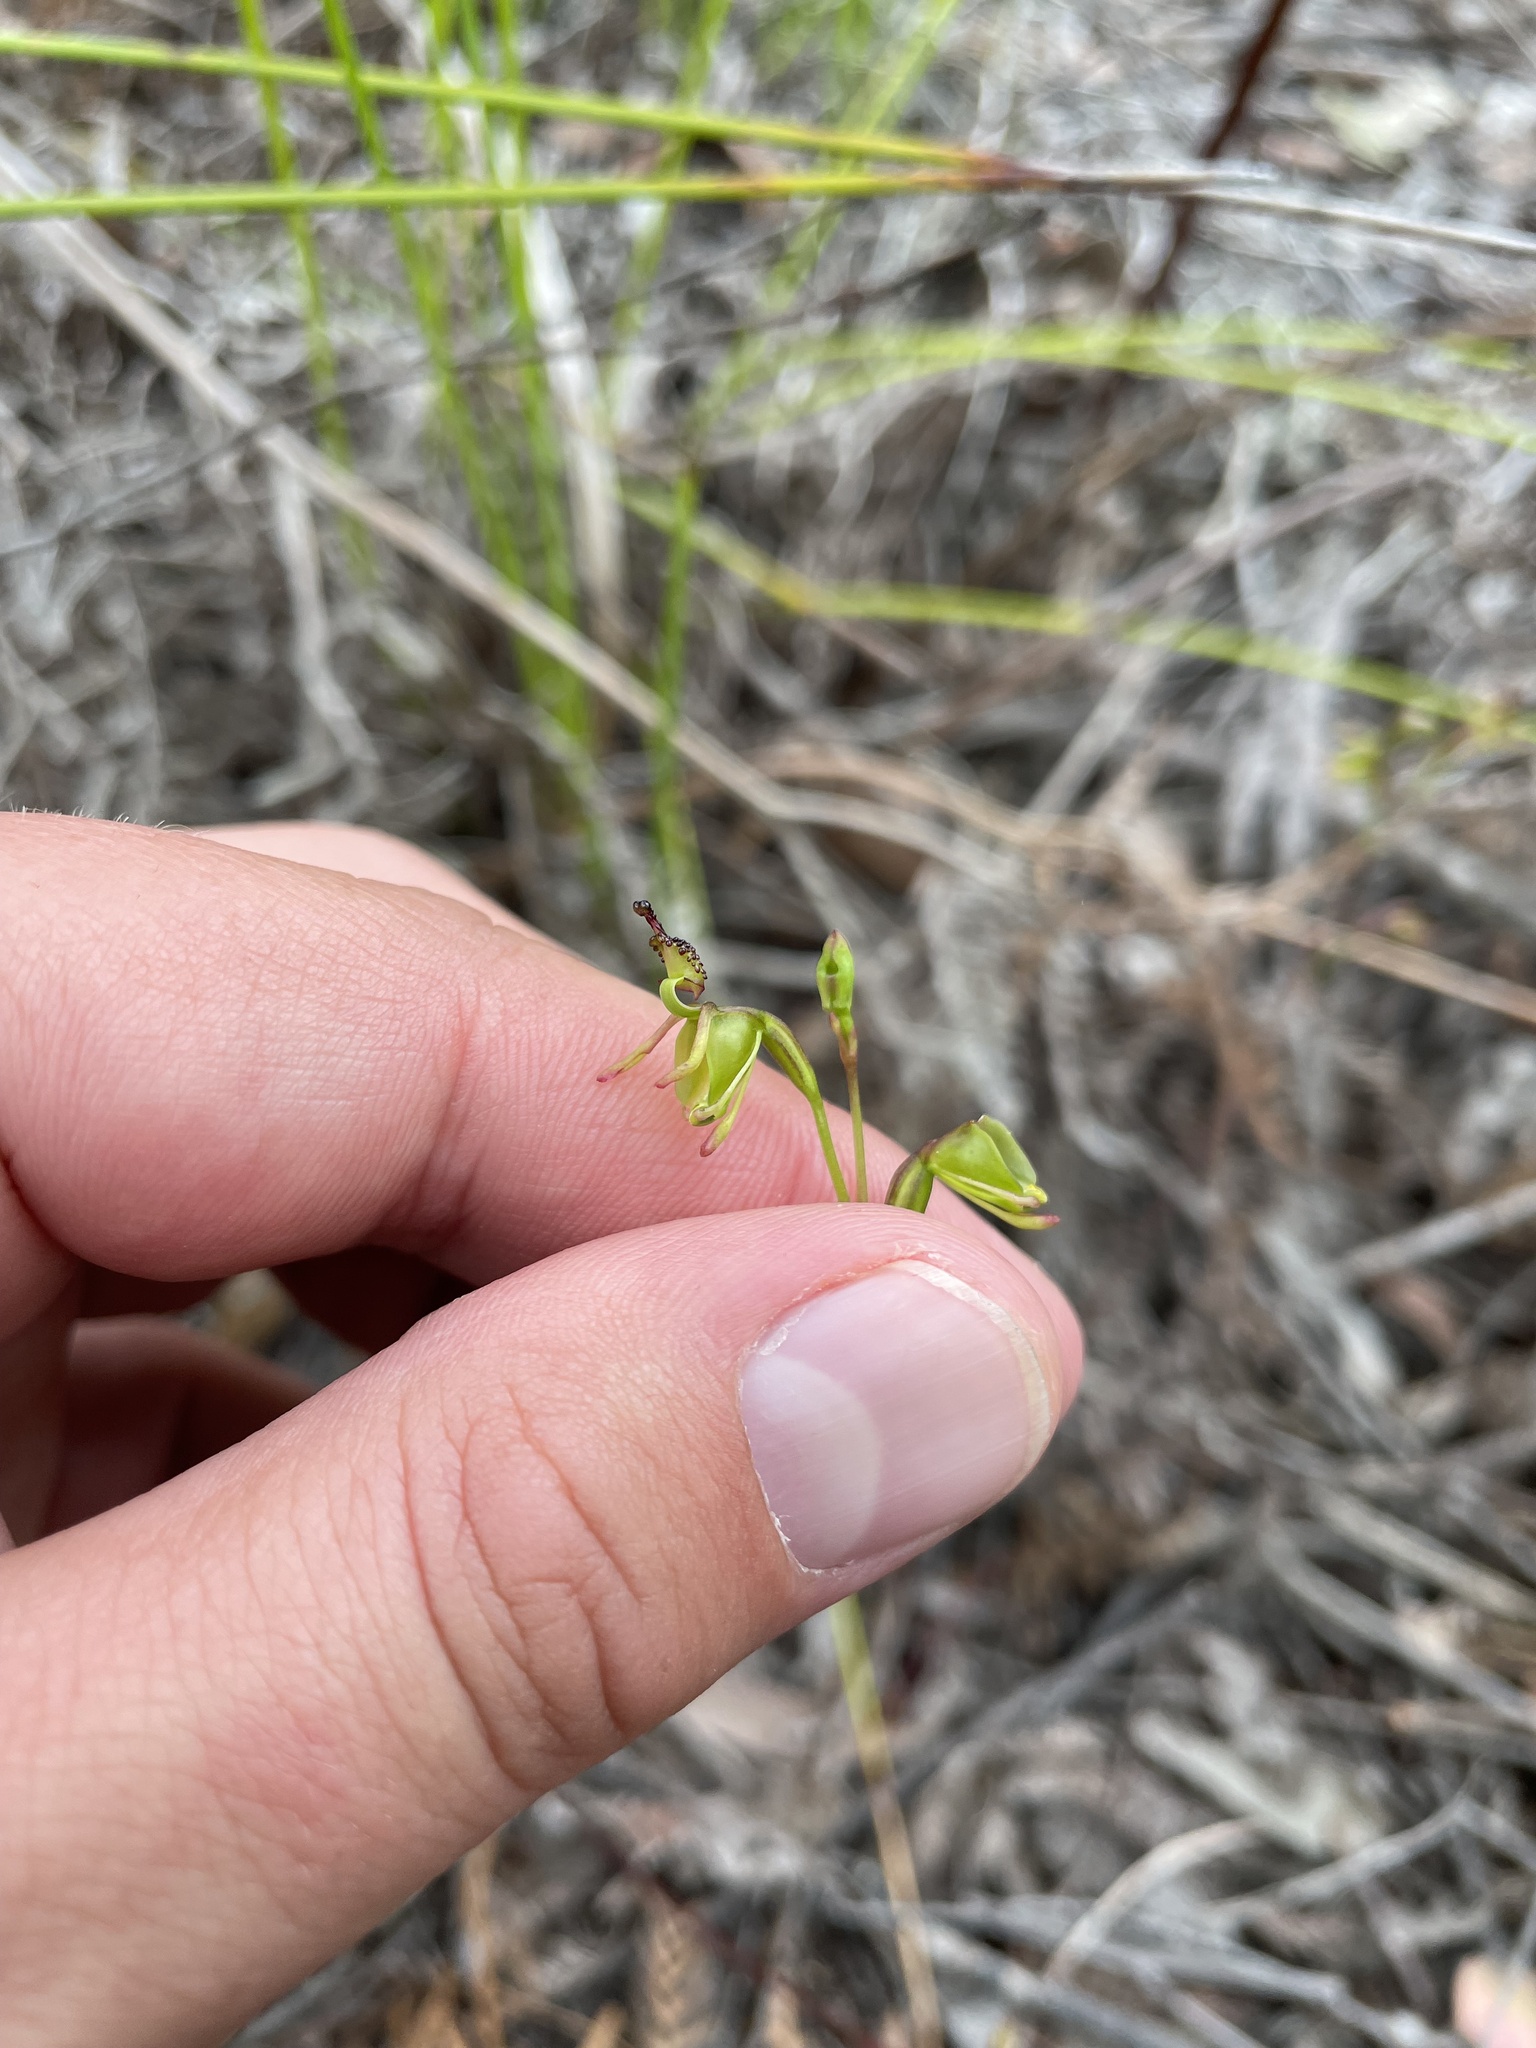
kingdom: Plantae
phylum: Tracheophyta
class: Liliopsida
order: Asparagales
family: Orchidaceae
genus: Caleana
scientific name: Caleana minor
